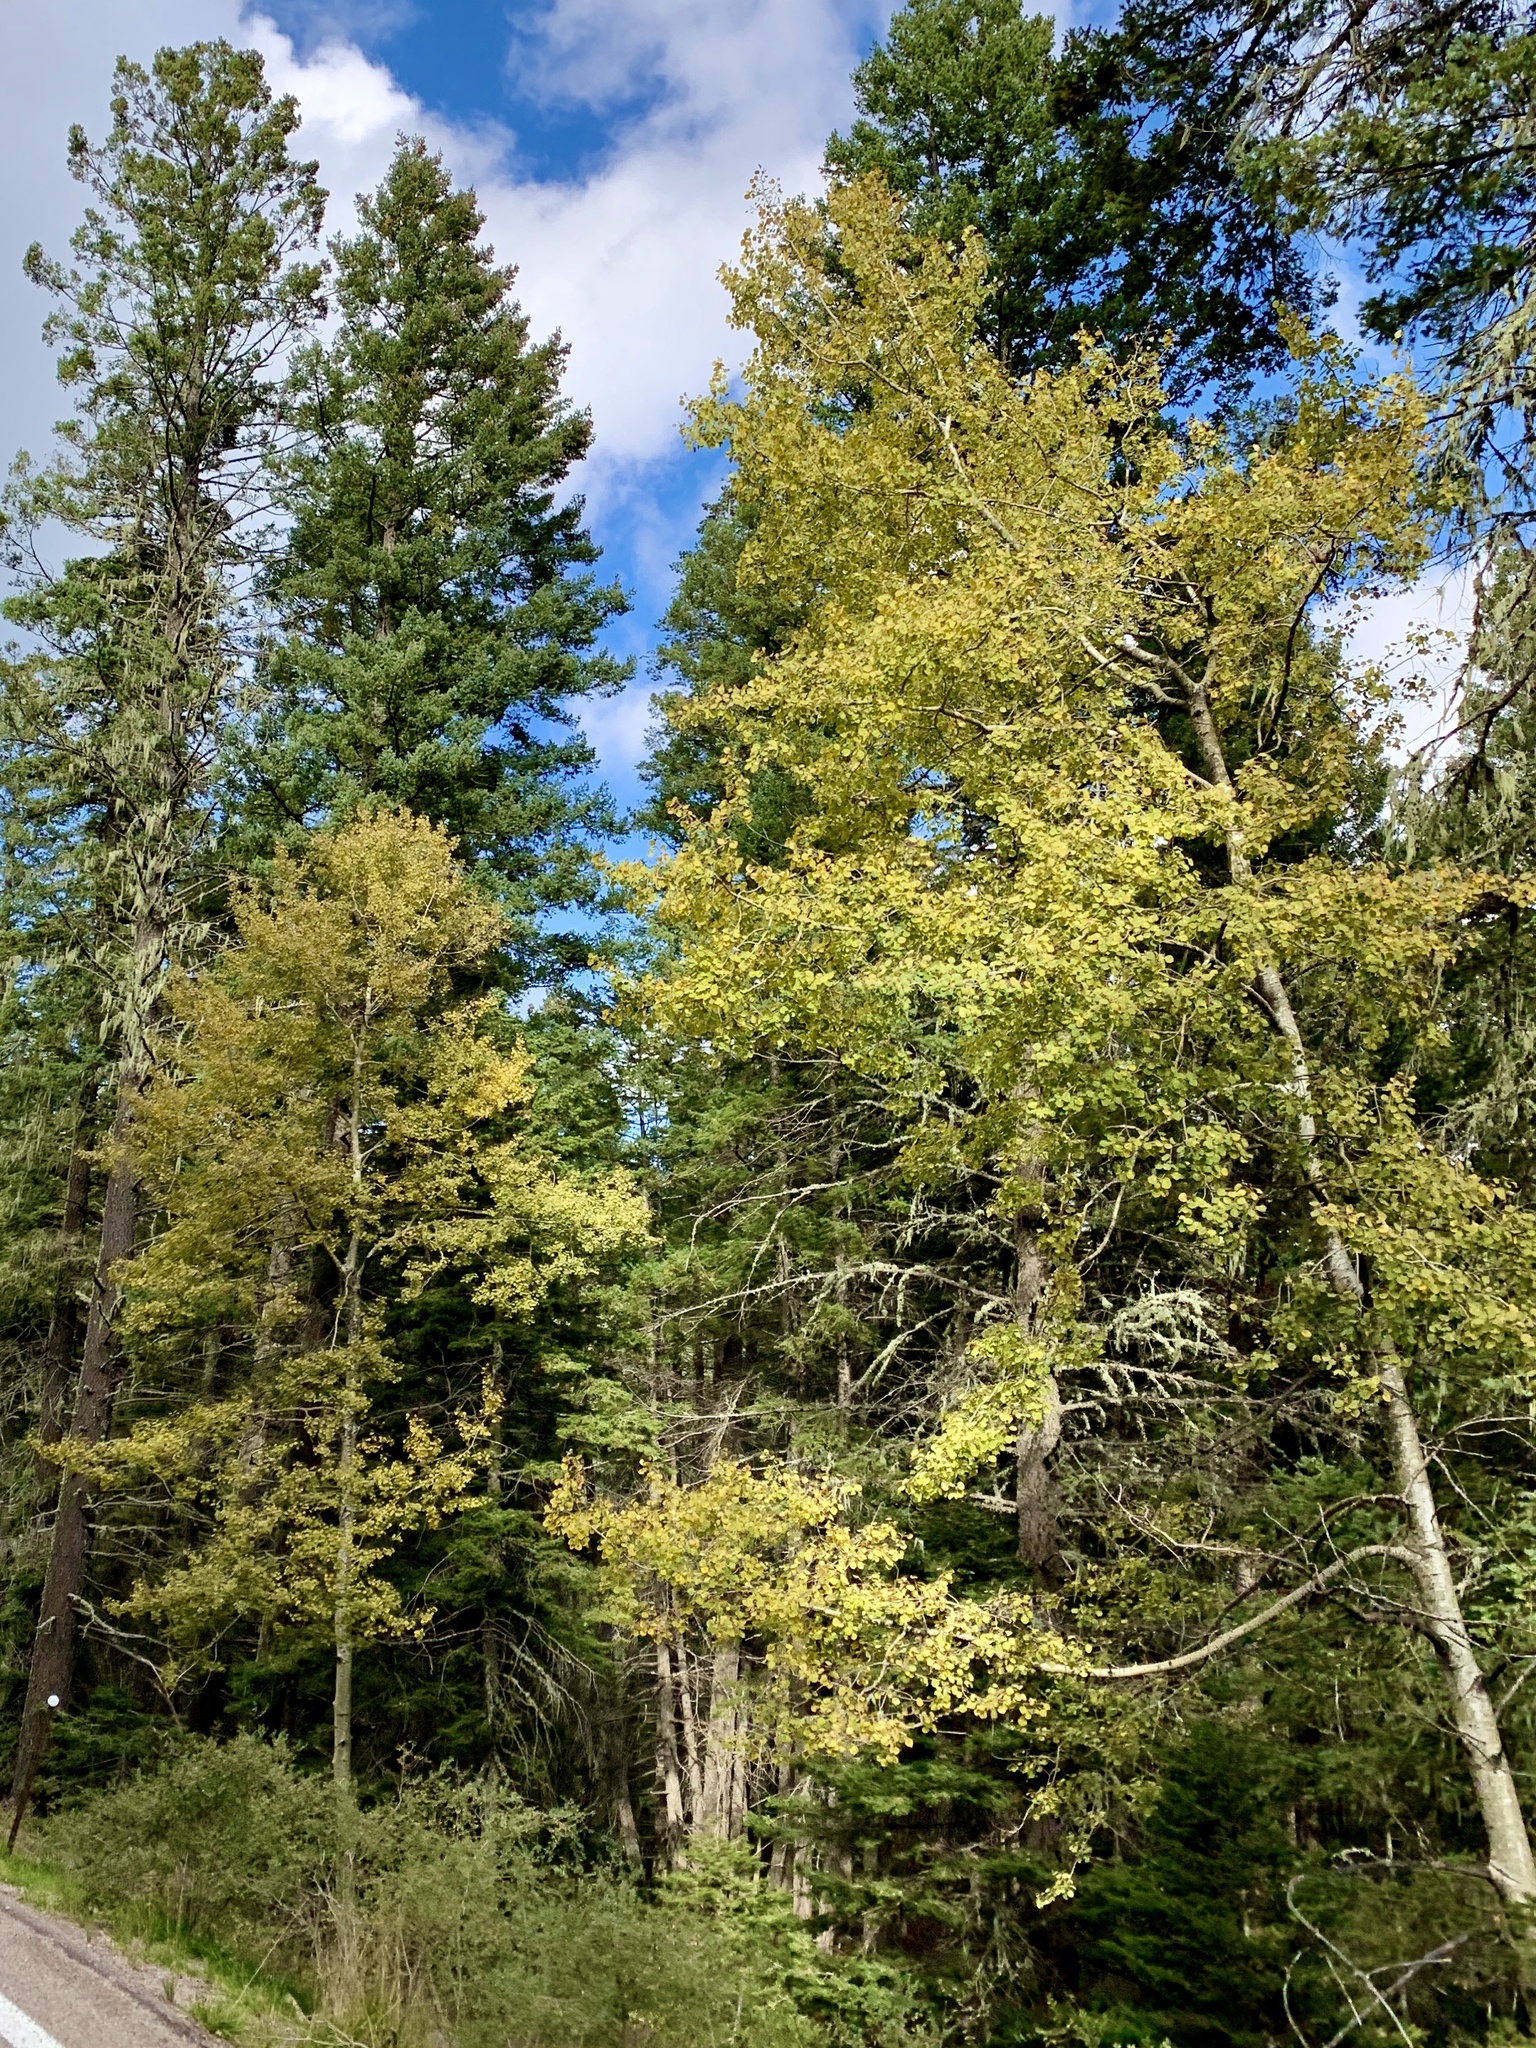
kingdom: Plantae
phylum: Tracheophyta
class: Magnoliopsida
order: Malpighiales
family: Salicaceae
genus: Populus
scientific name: Populus tremuloides
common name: Quaking aspen
